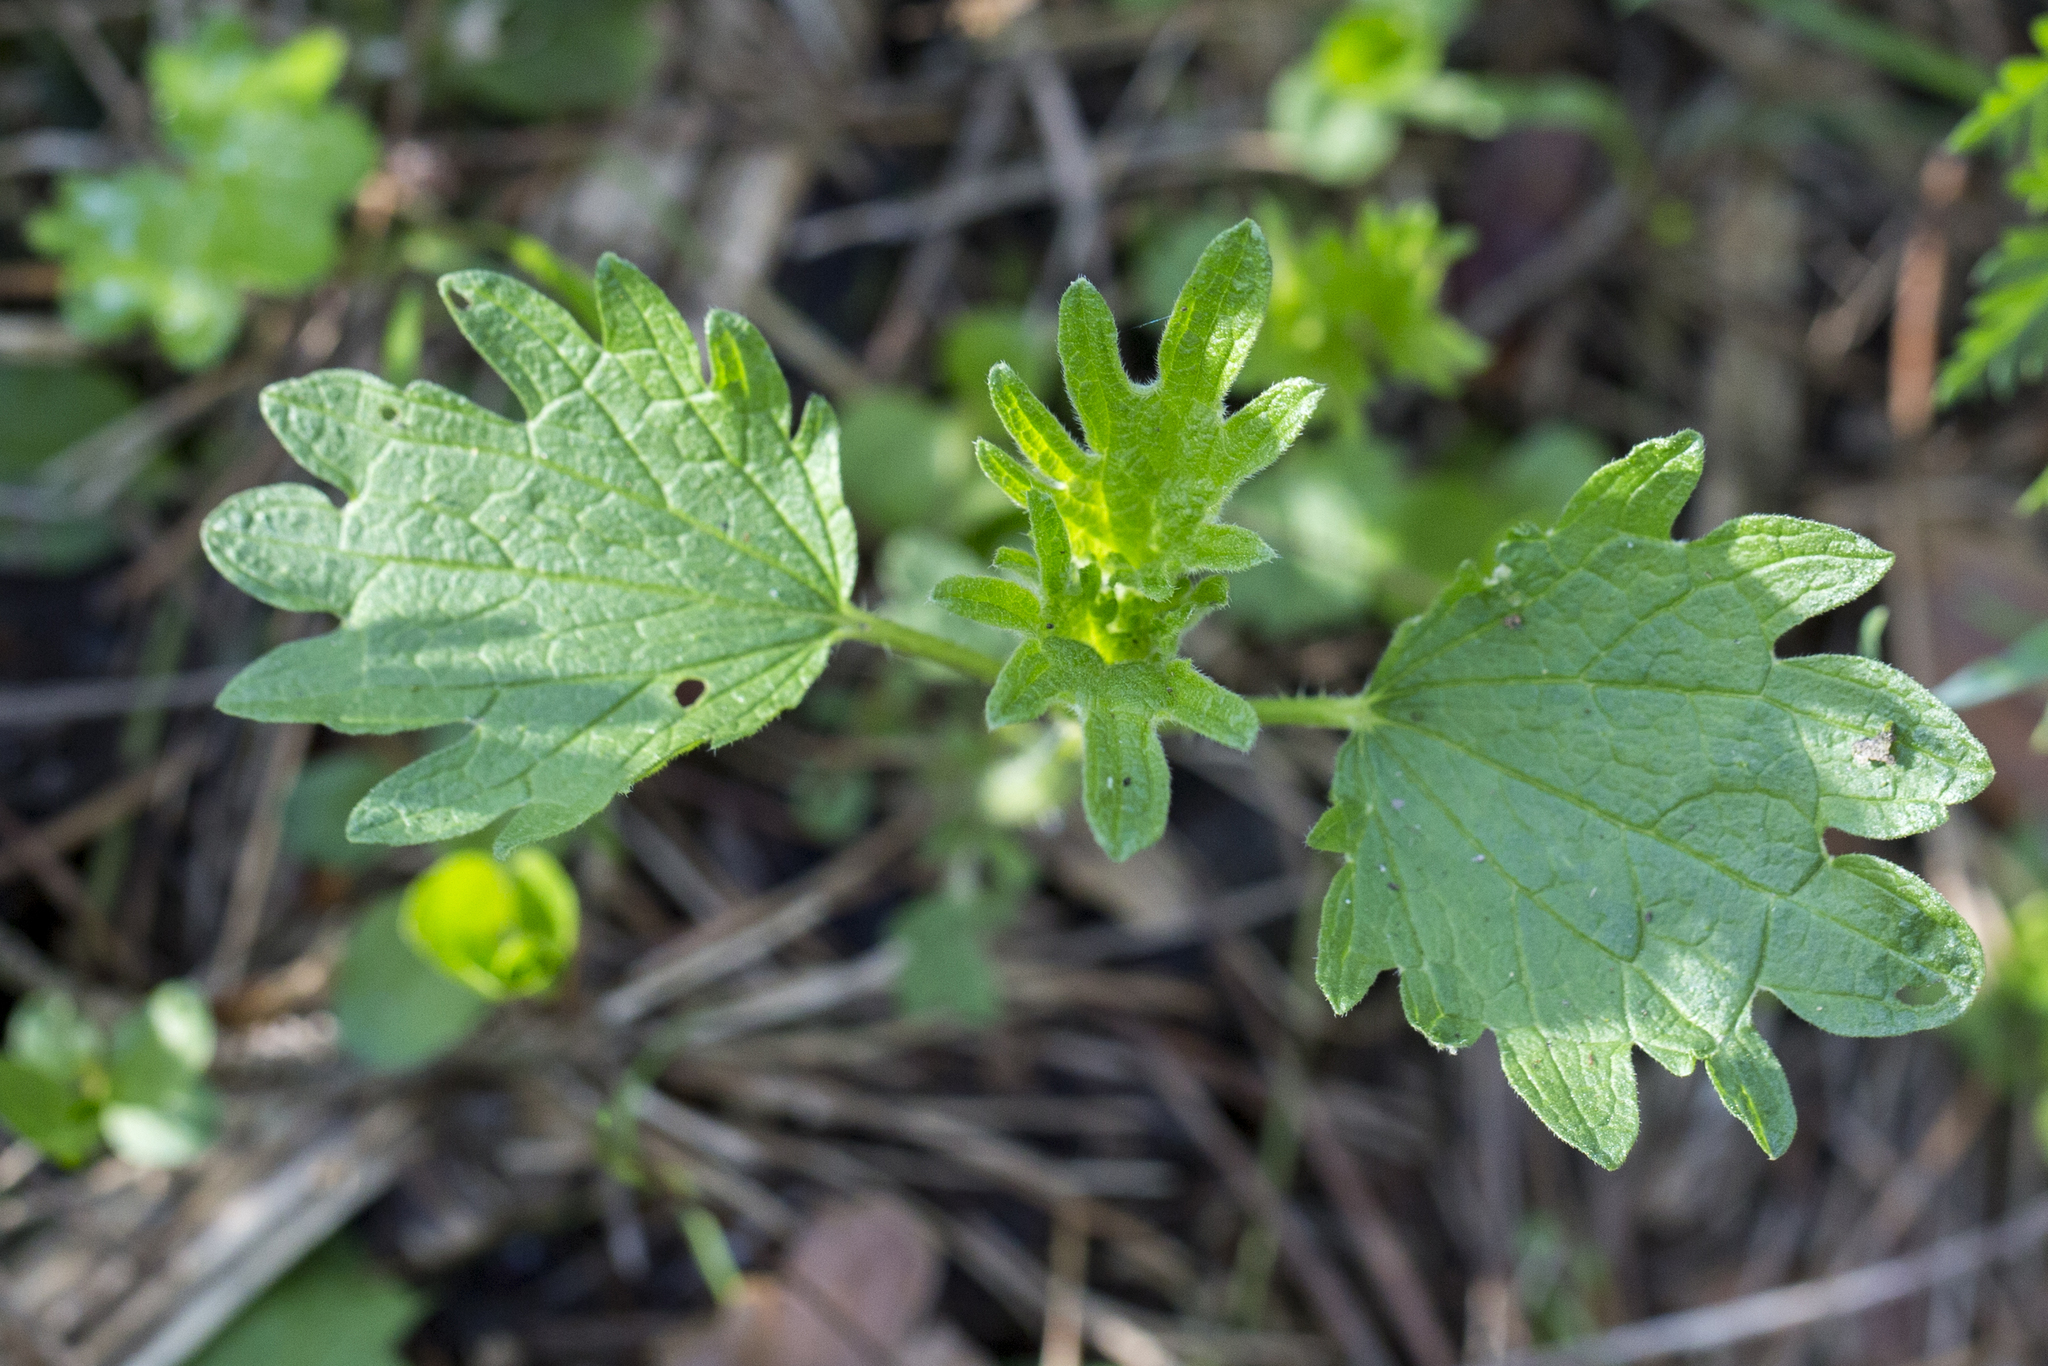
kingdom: Plantae
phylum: Tracheophyta
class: Magnoliopsida
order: Rosales
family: Urticaceae
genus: Urtica
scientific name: Urtica dioica
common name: Common nettle
